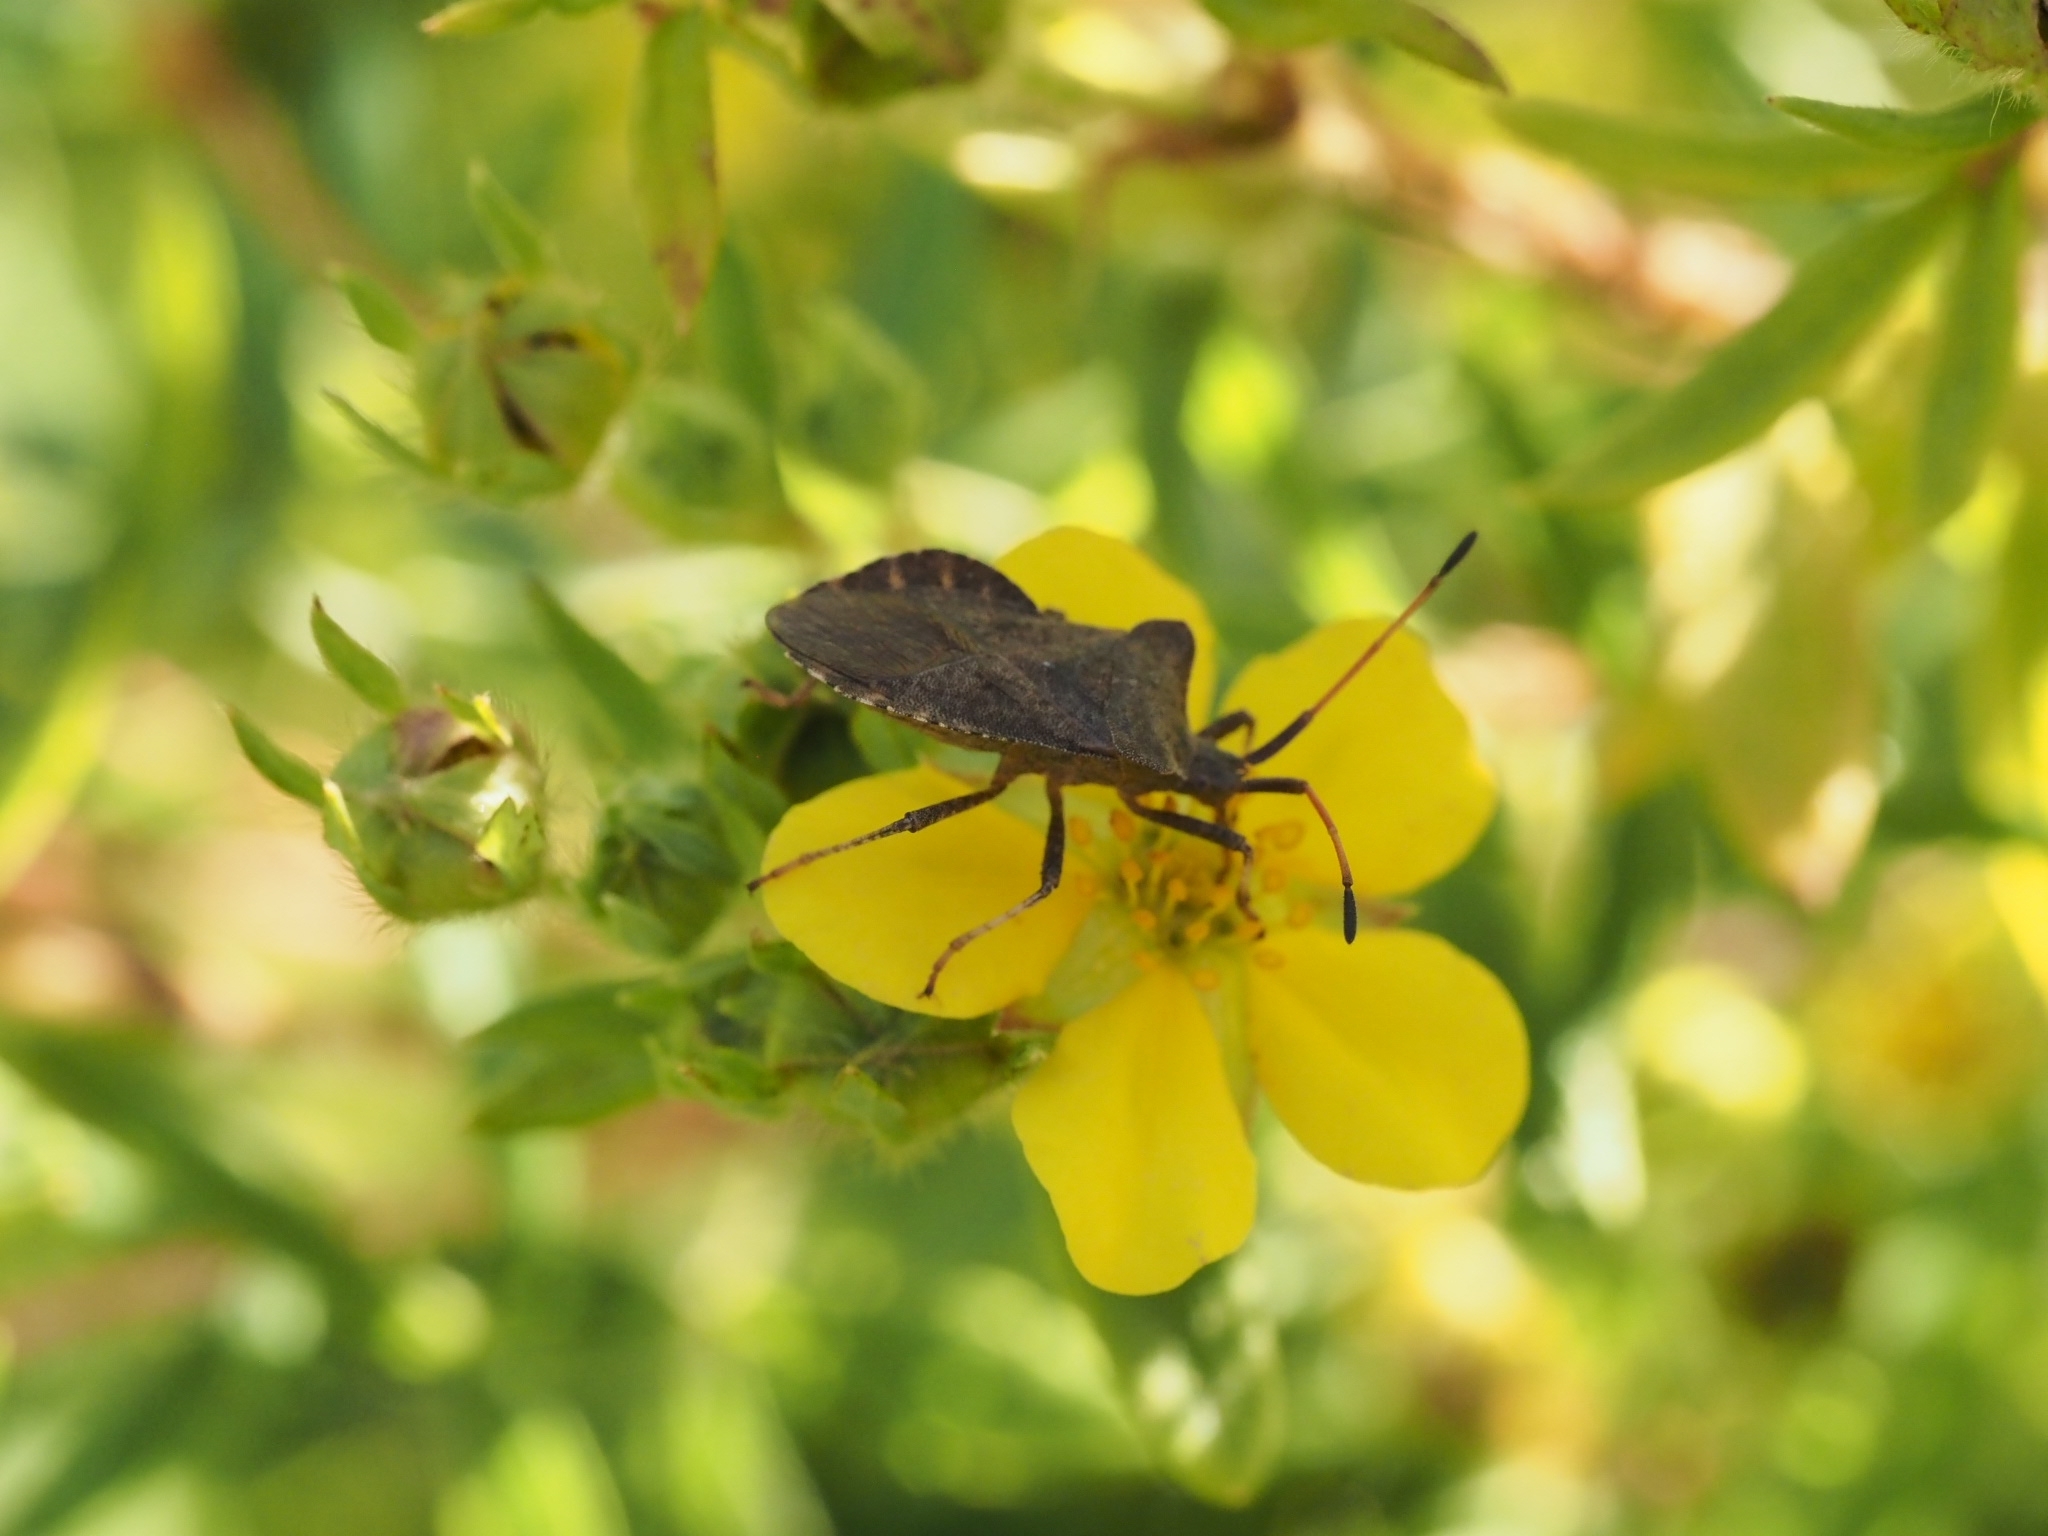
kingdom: Animalia
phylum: Arthropoda
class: Insecta
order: Hemiptera
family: Coreidae
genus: Coreus
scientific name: Coreus marginatus
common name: Dock bug
